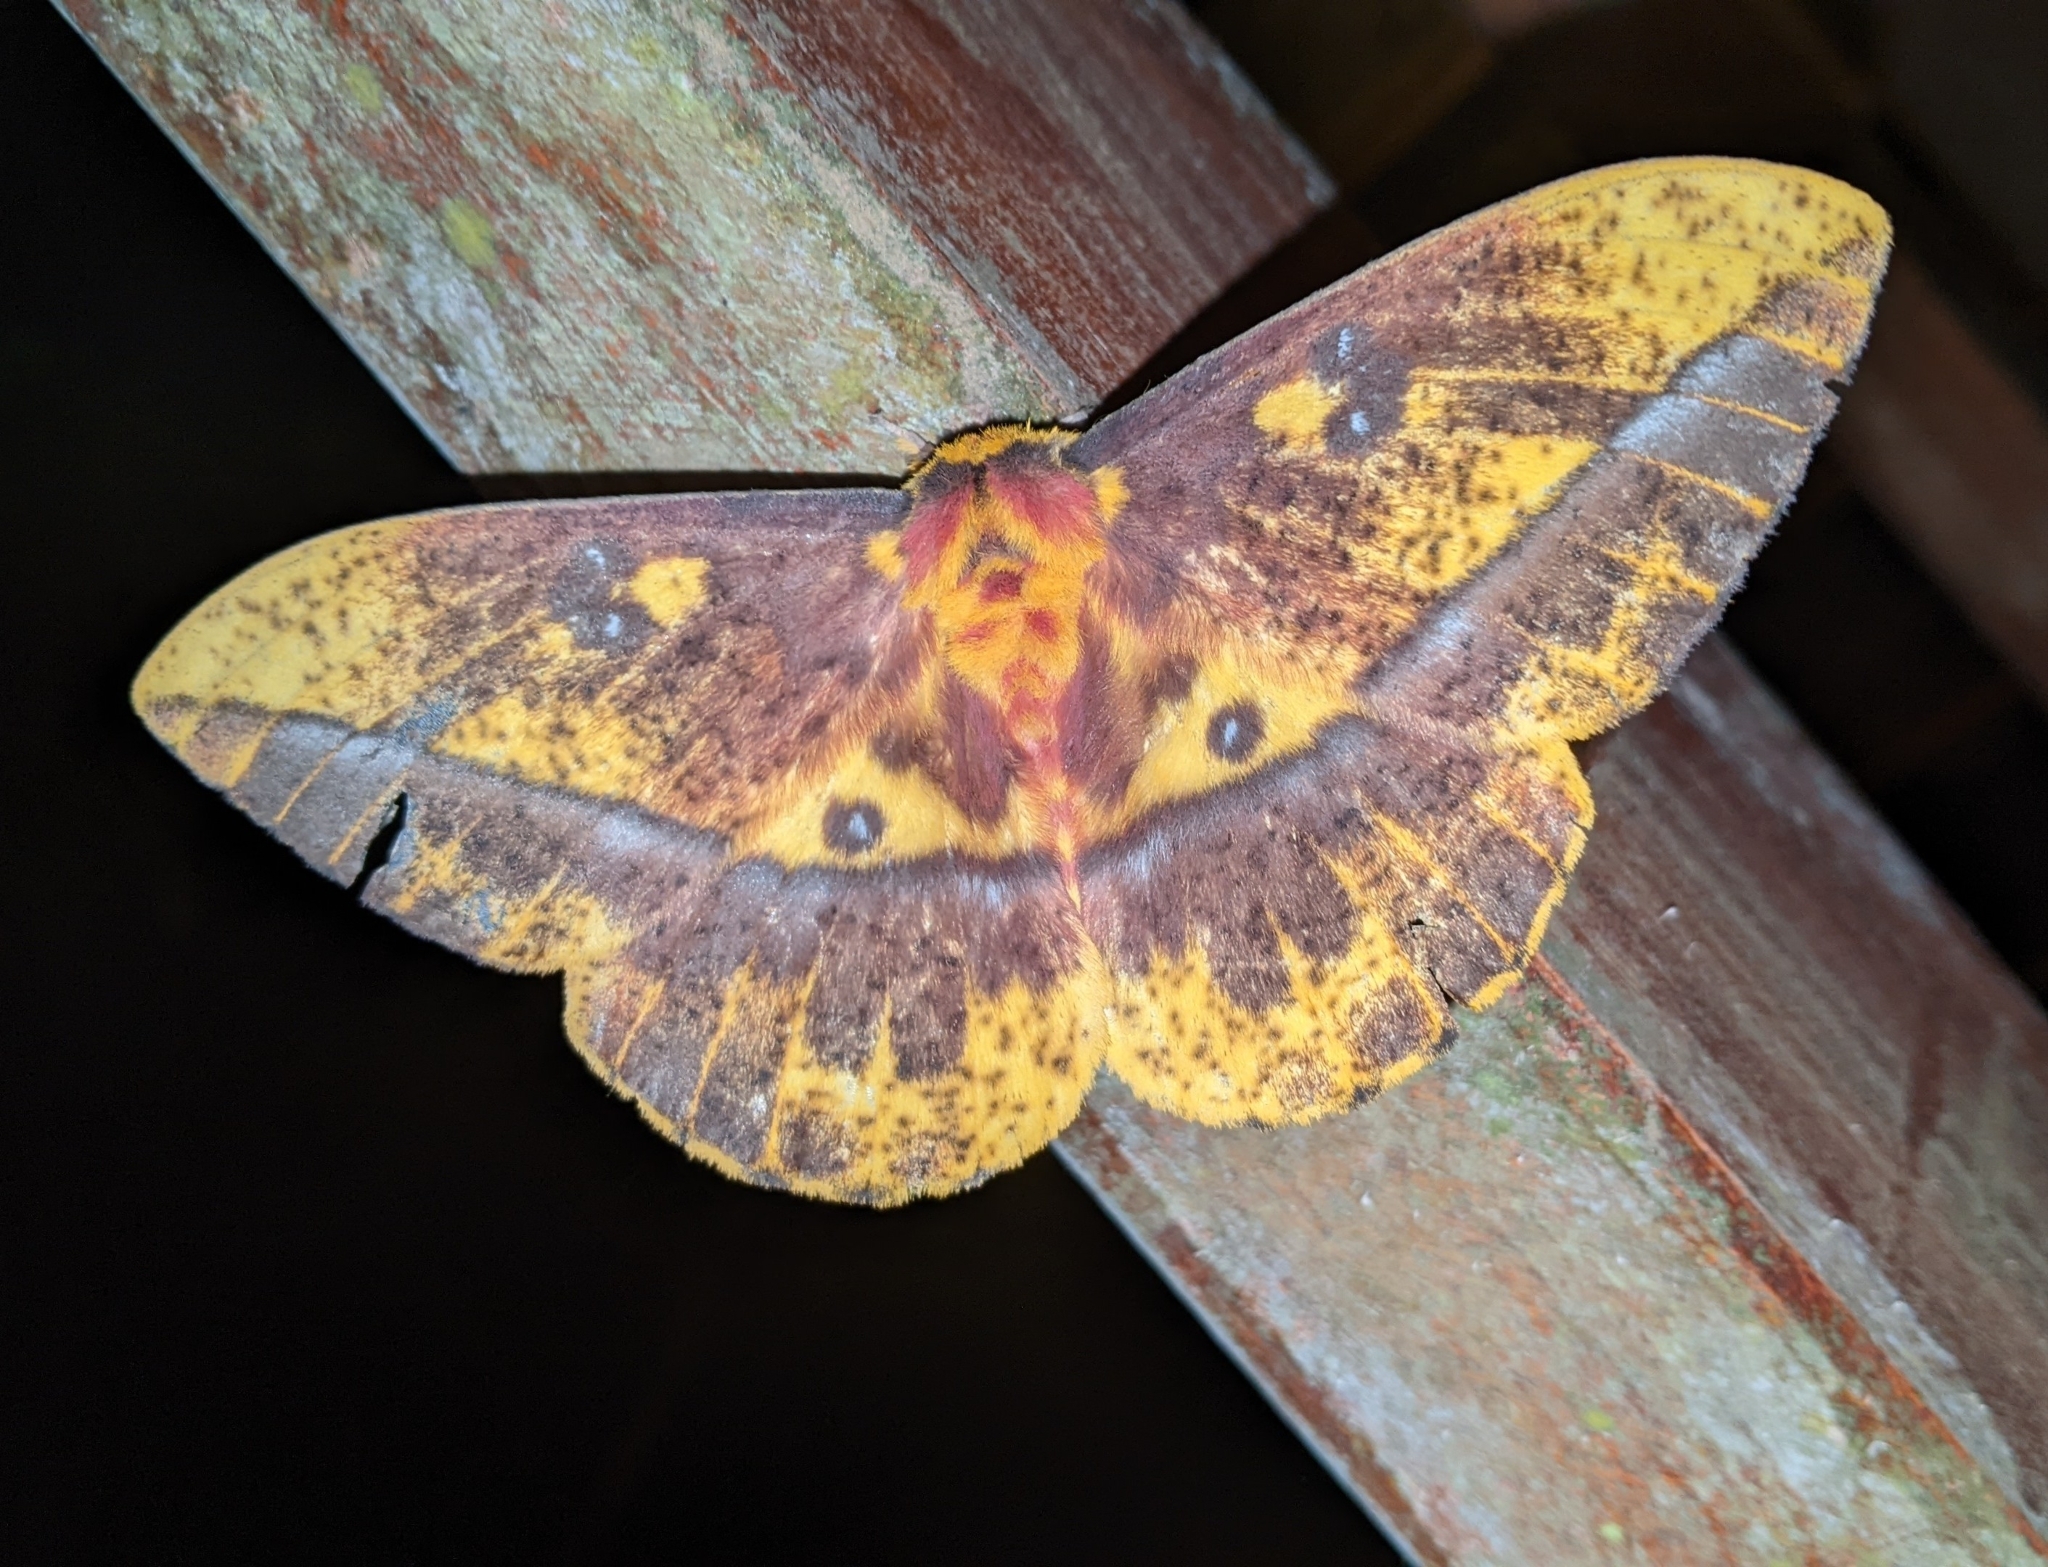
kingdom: Animalia
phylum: Arthropoda
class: Insecta
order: Lepidoptera
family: Saturniidae
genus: Bathyphlebia
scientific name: Bathyphlebia eminens
